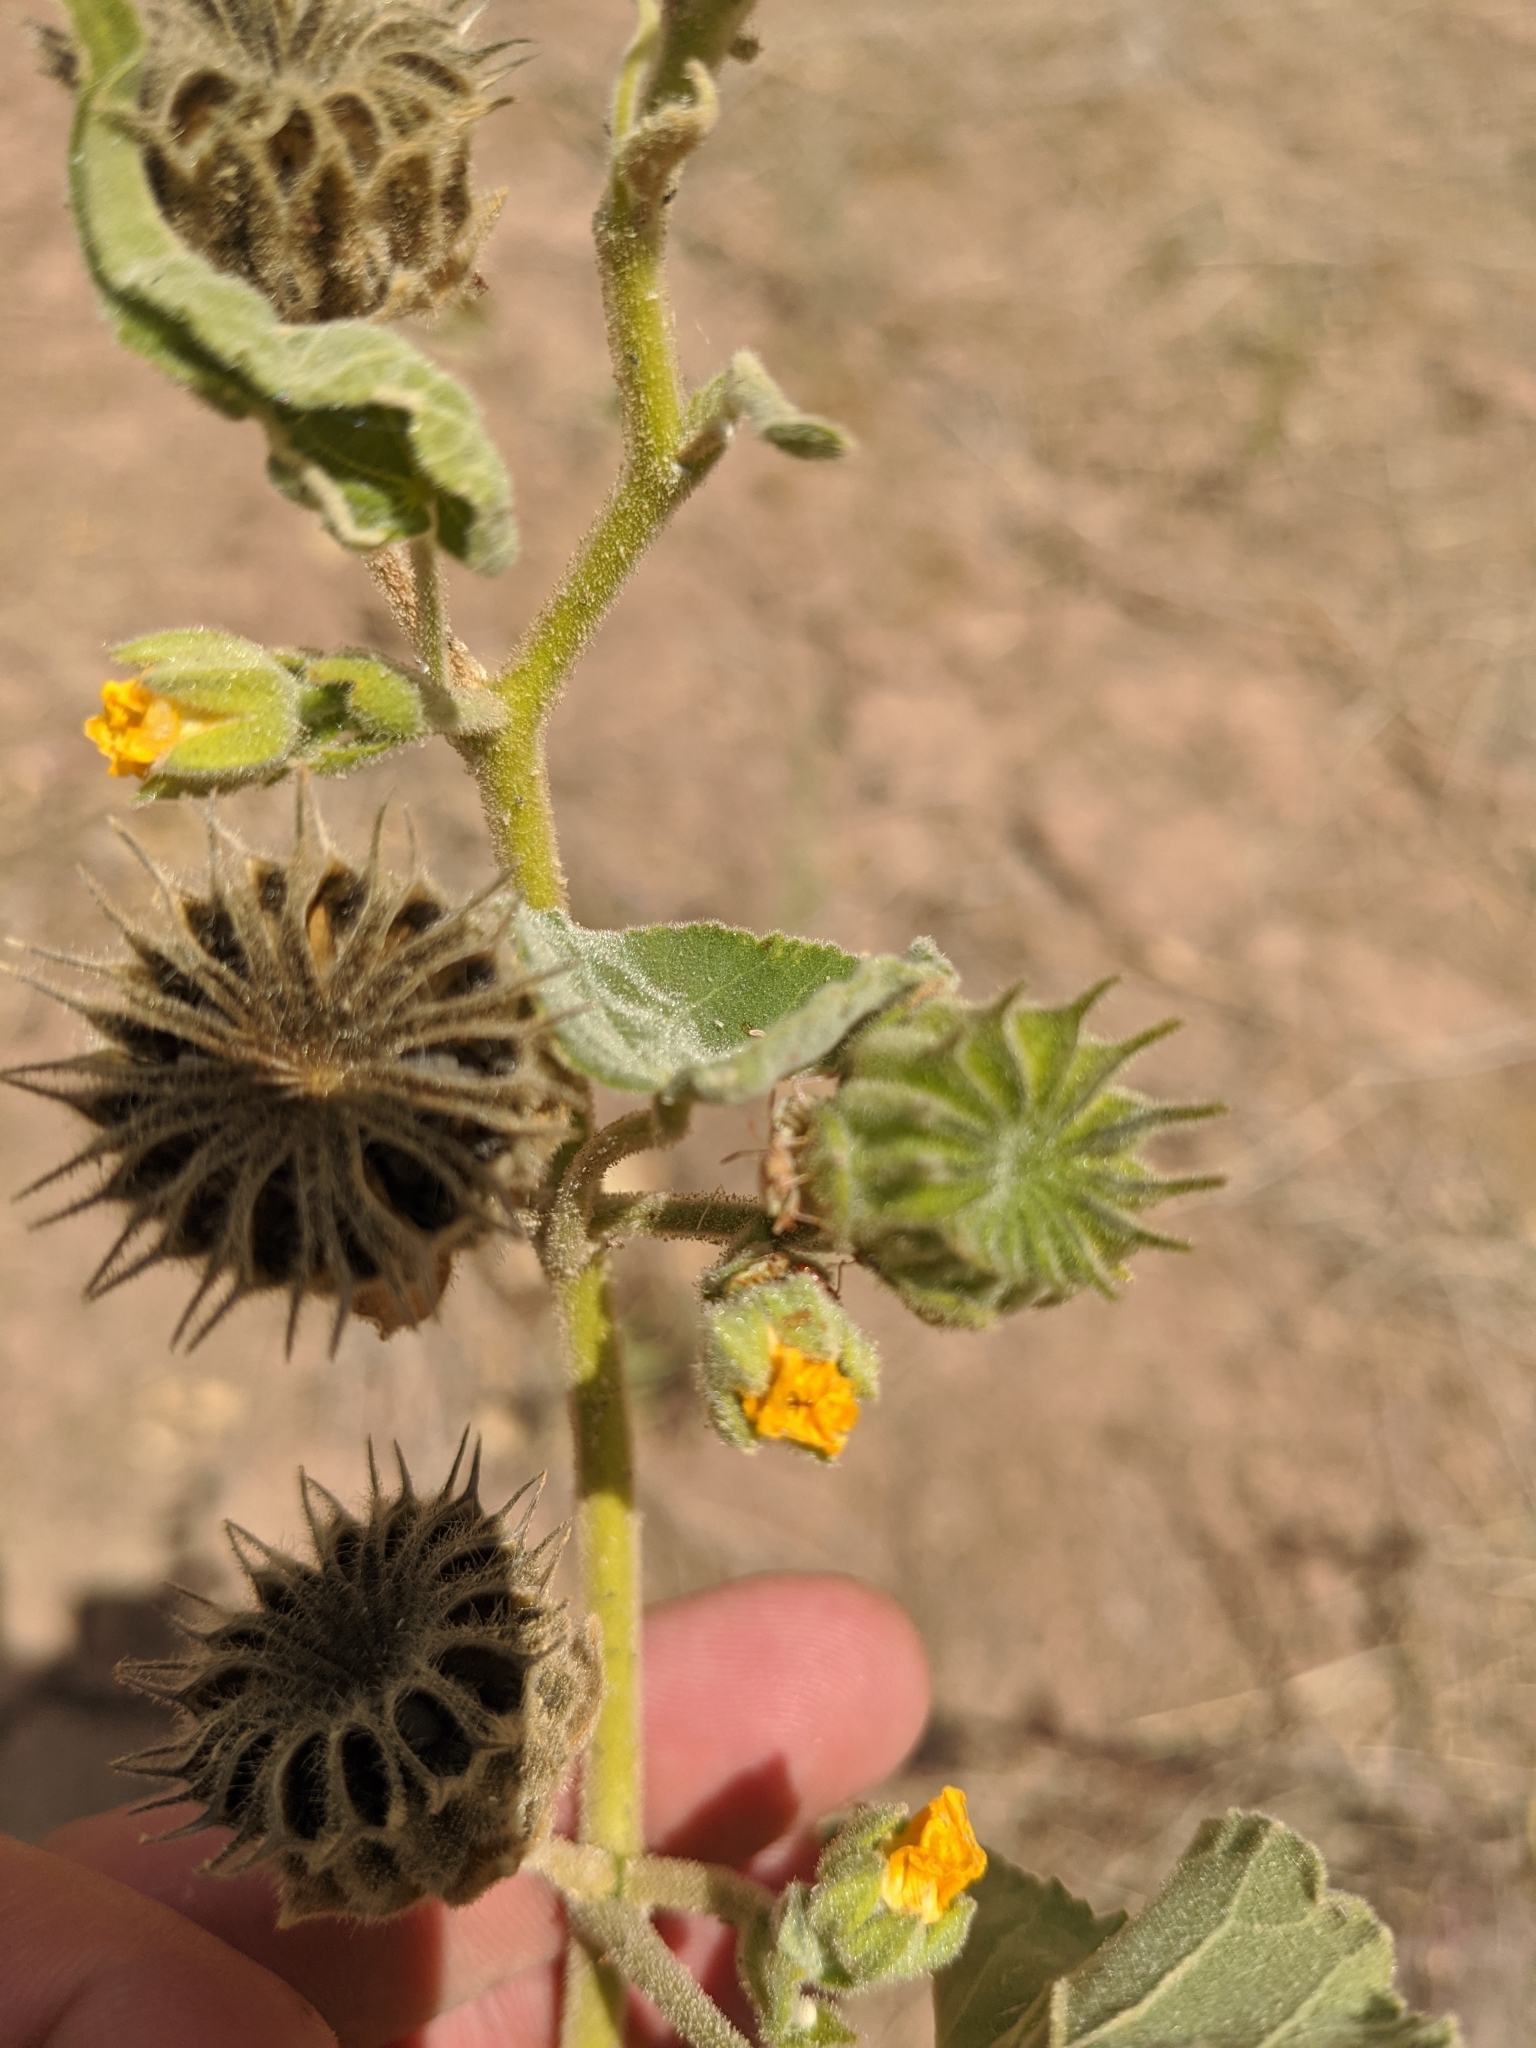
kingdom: Plantae
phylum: Tracheophyta
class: Magnoliopsida
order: Malvales
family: Malvaceae
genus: Abutilon
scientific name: Abutilon theophrasti
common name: Velvetleaf
